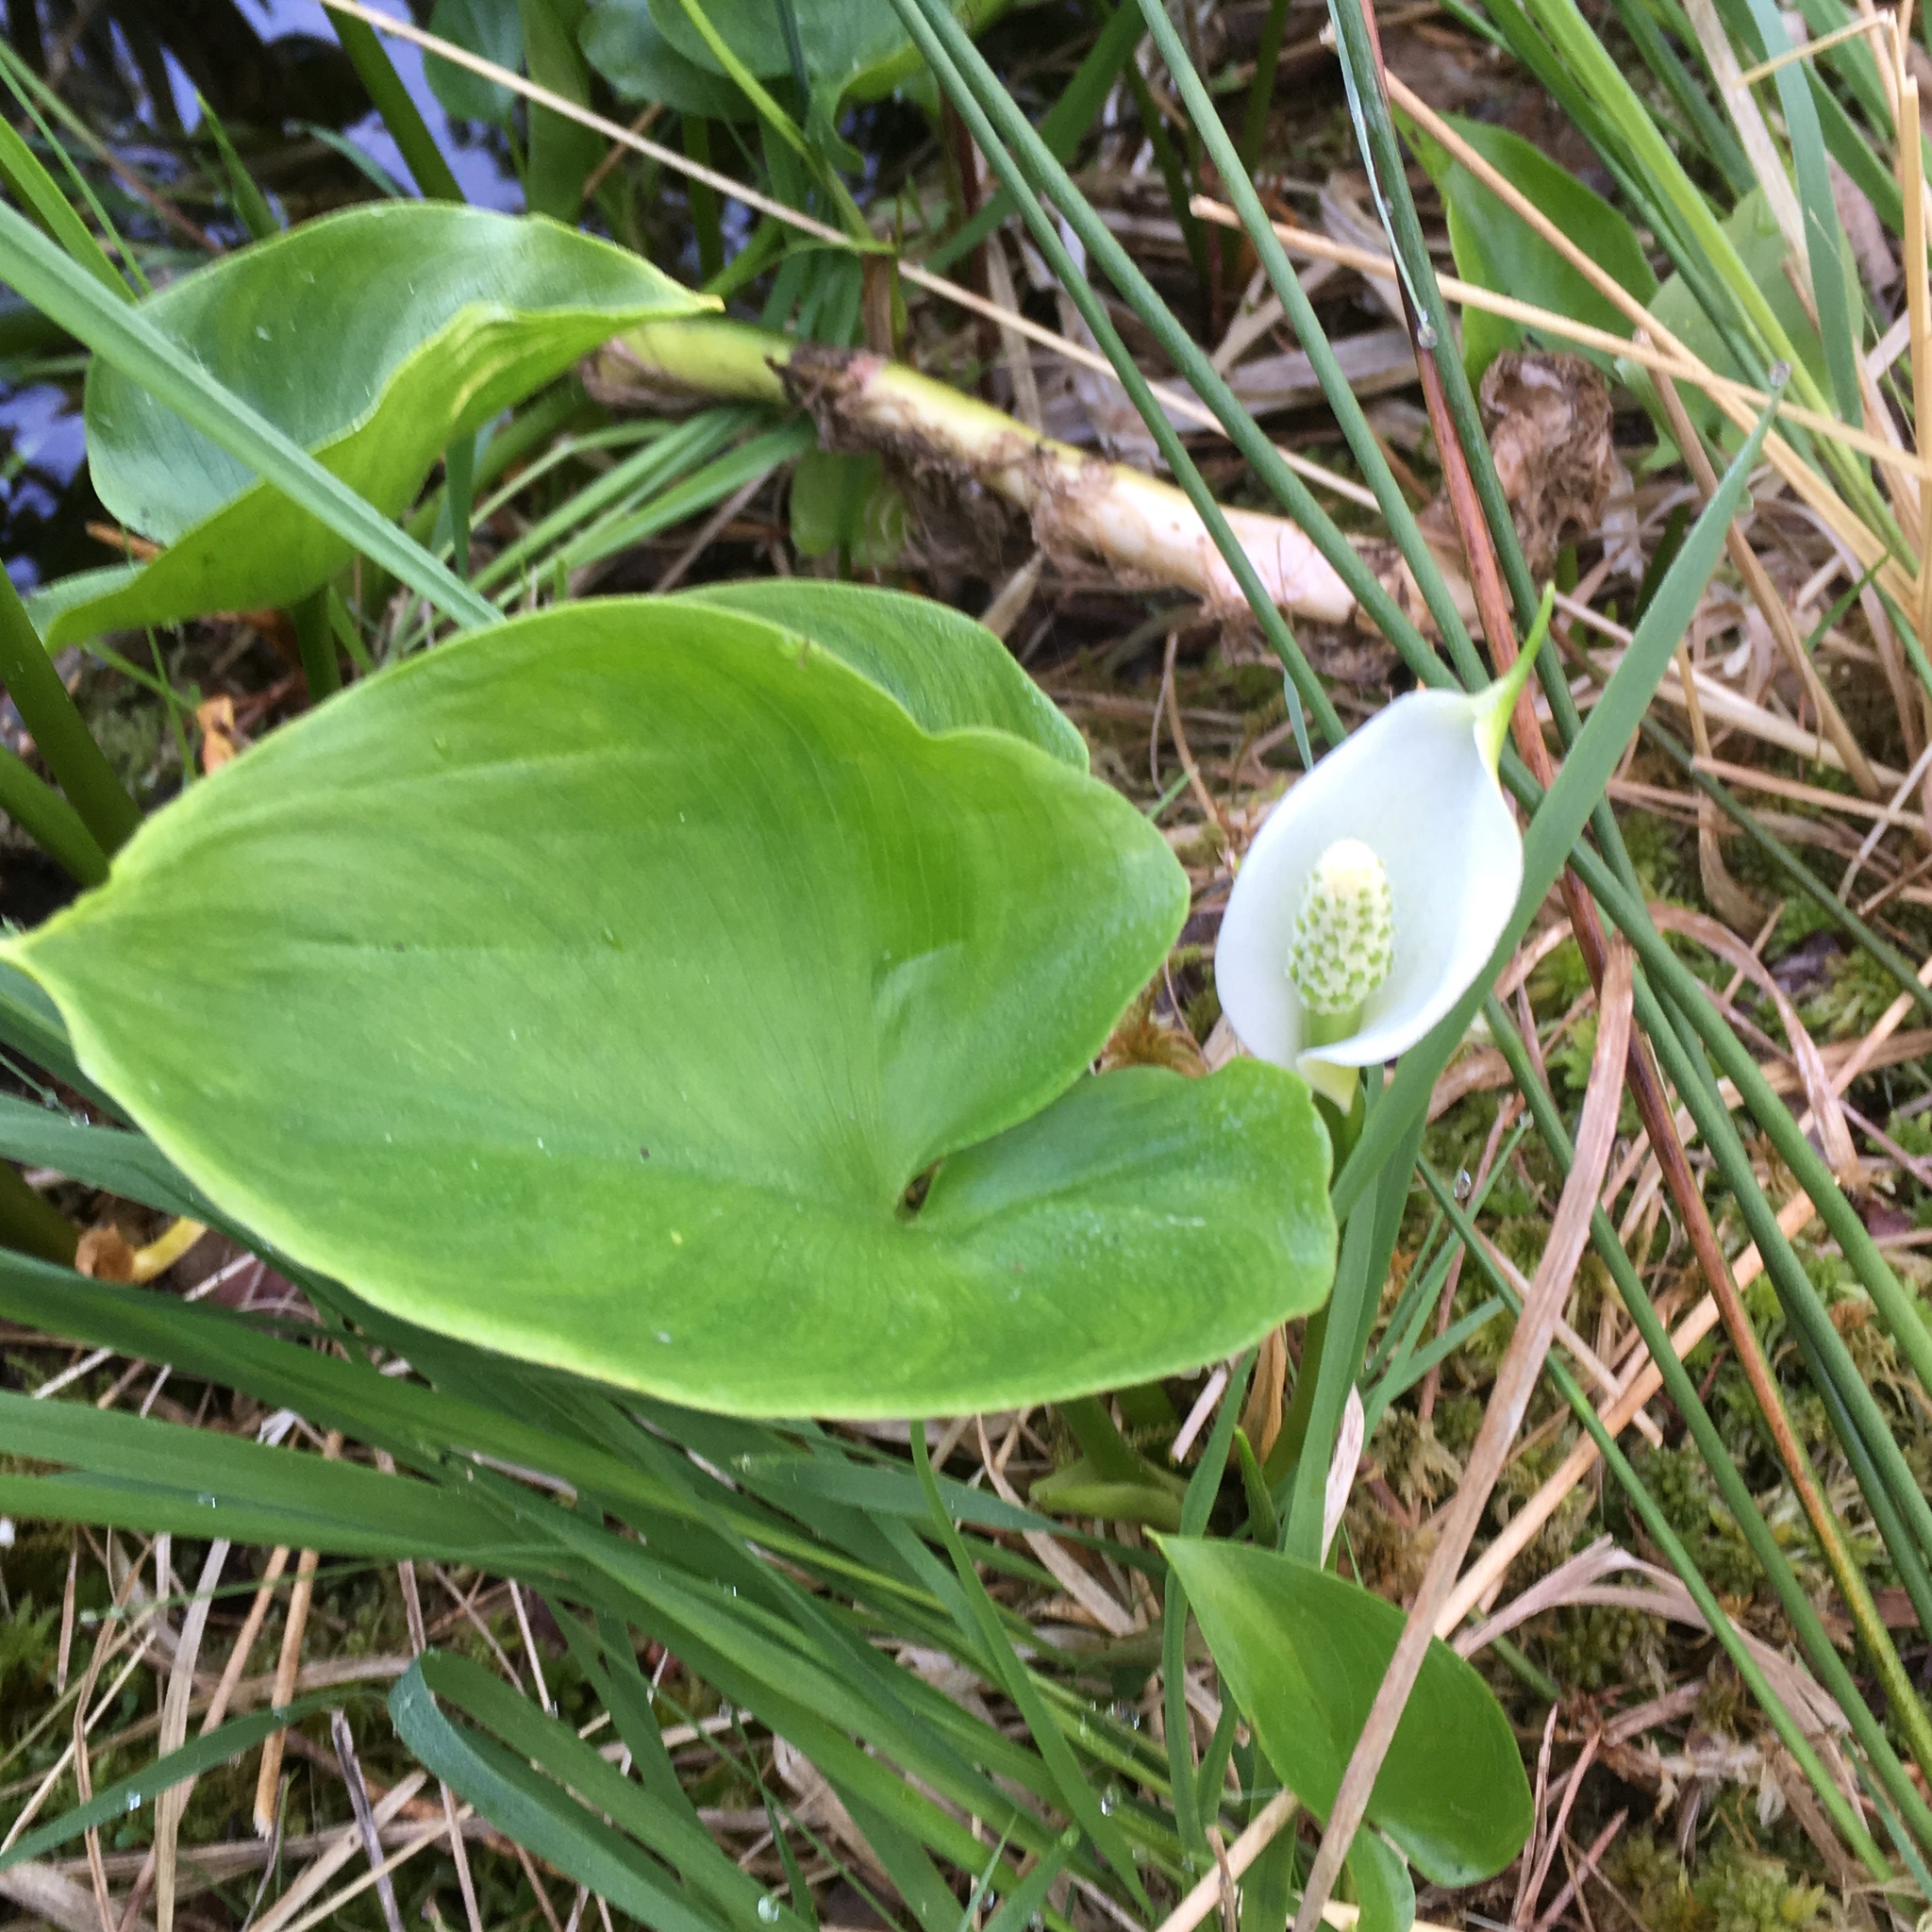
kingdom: Plantae
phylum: Tracheophyta
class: Liliopsida
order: Alismatales
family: Araceae
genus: Calla
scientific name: Calla palustris
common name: Bog arum
